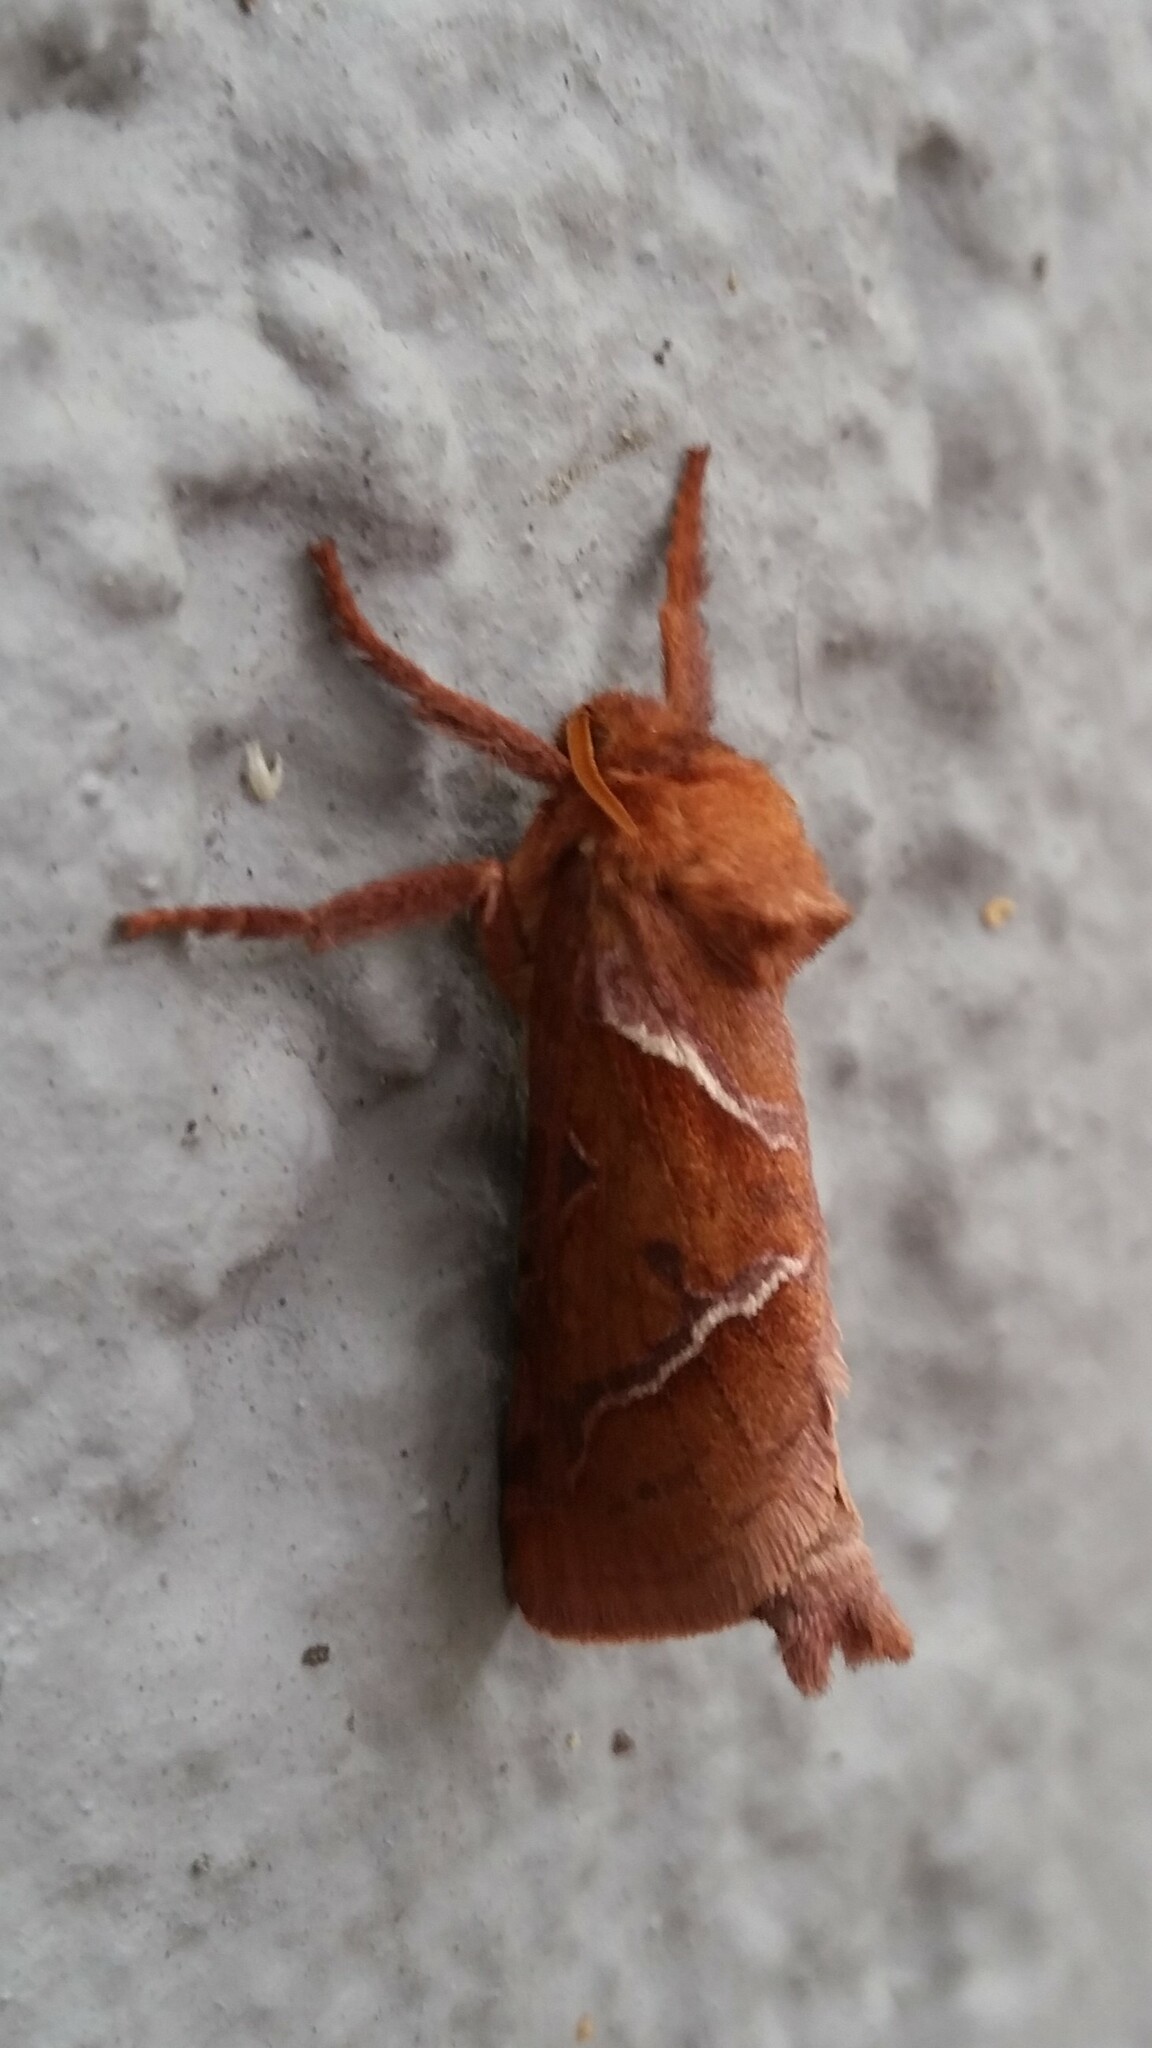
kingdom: Animalia
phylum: Arthropoda
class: Insecta
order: Lepidoptera
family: Hepialidae
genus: Triodia
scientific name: Triodia sylvina
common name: Orange swift
